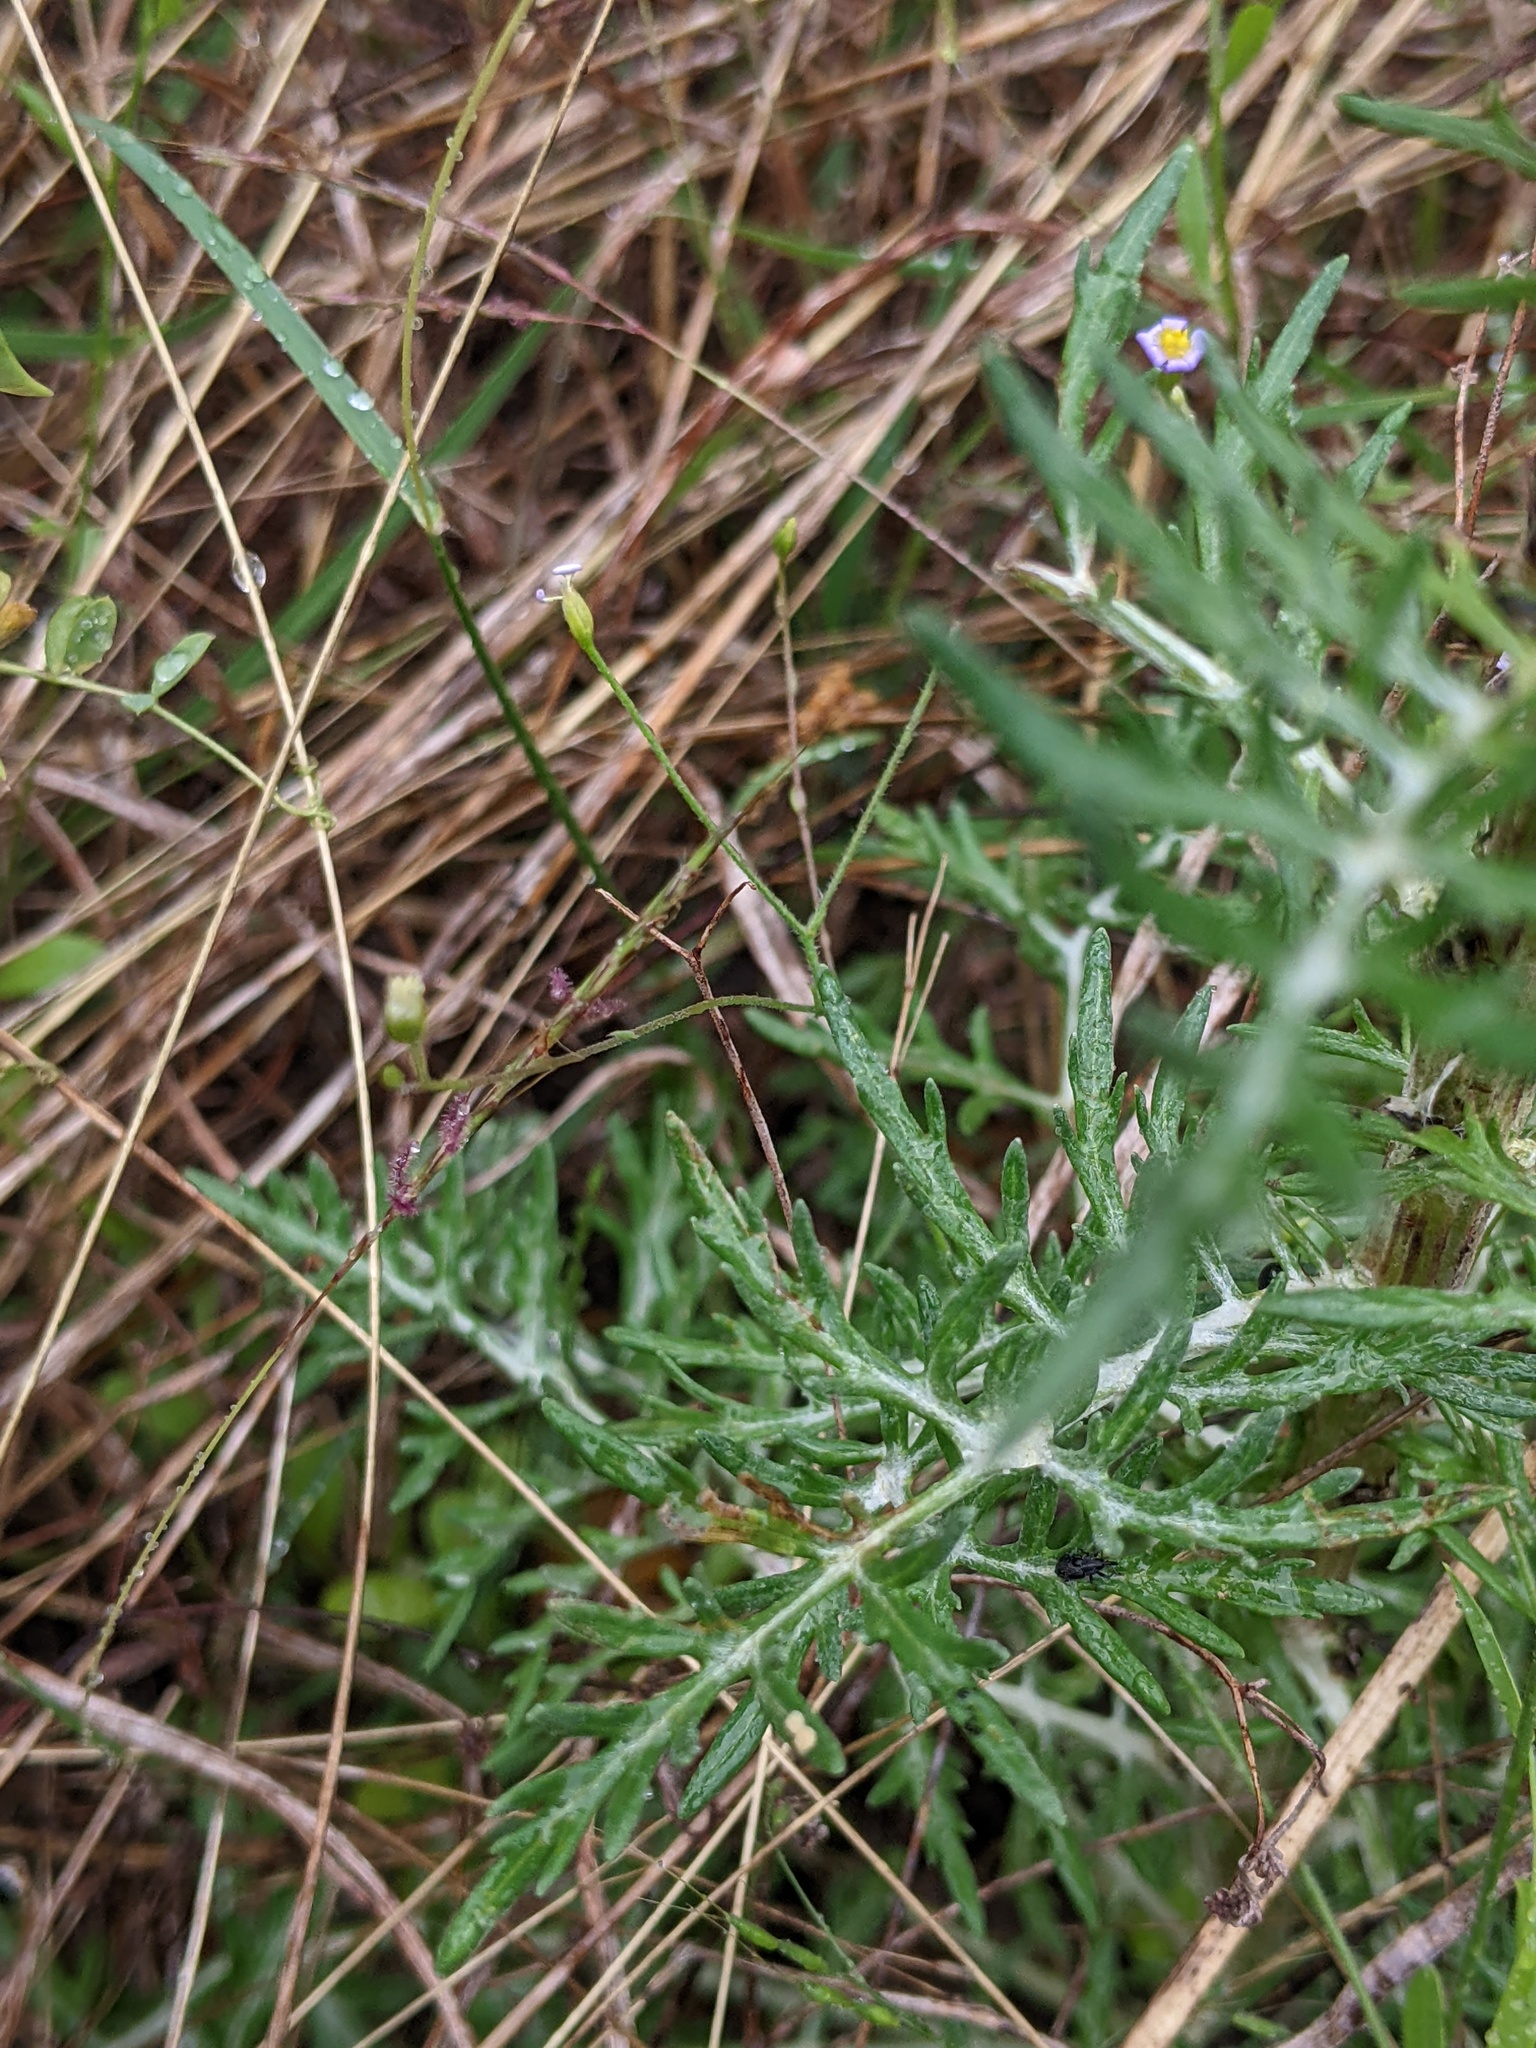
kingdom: Plantae
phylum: Tracheophyta
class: Magnoliopsida
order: Asterales
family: Asteraceae
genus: Hymenopappus
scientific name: Hymenopappus scabiosaeus
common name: Carolina woollywhite
